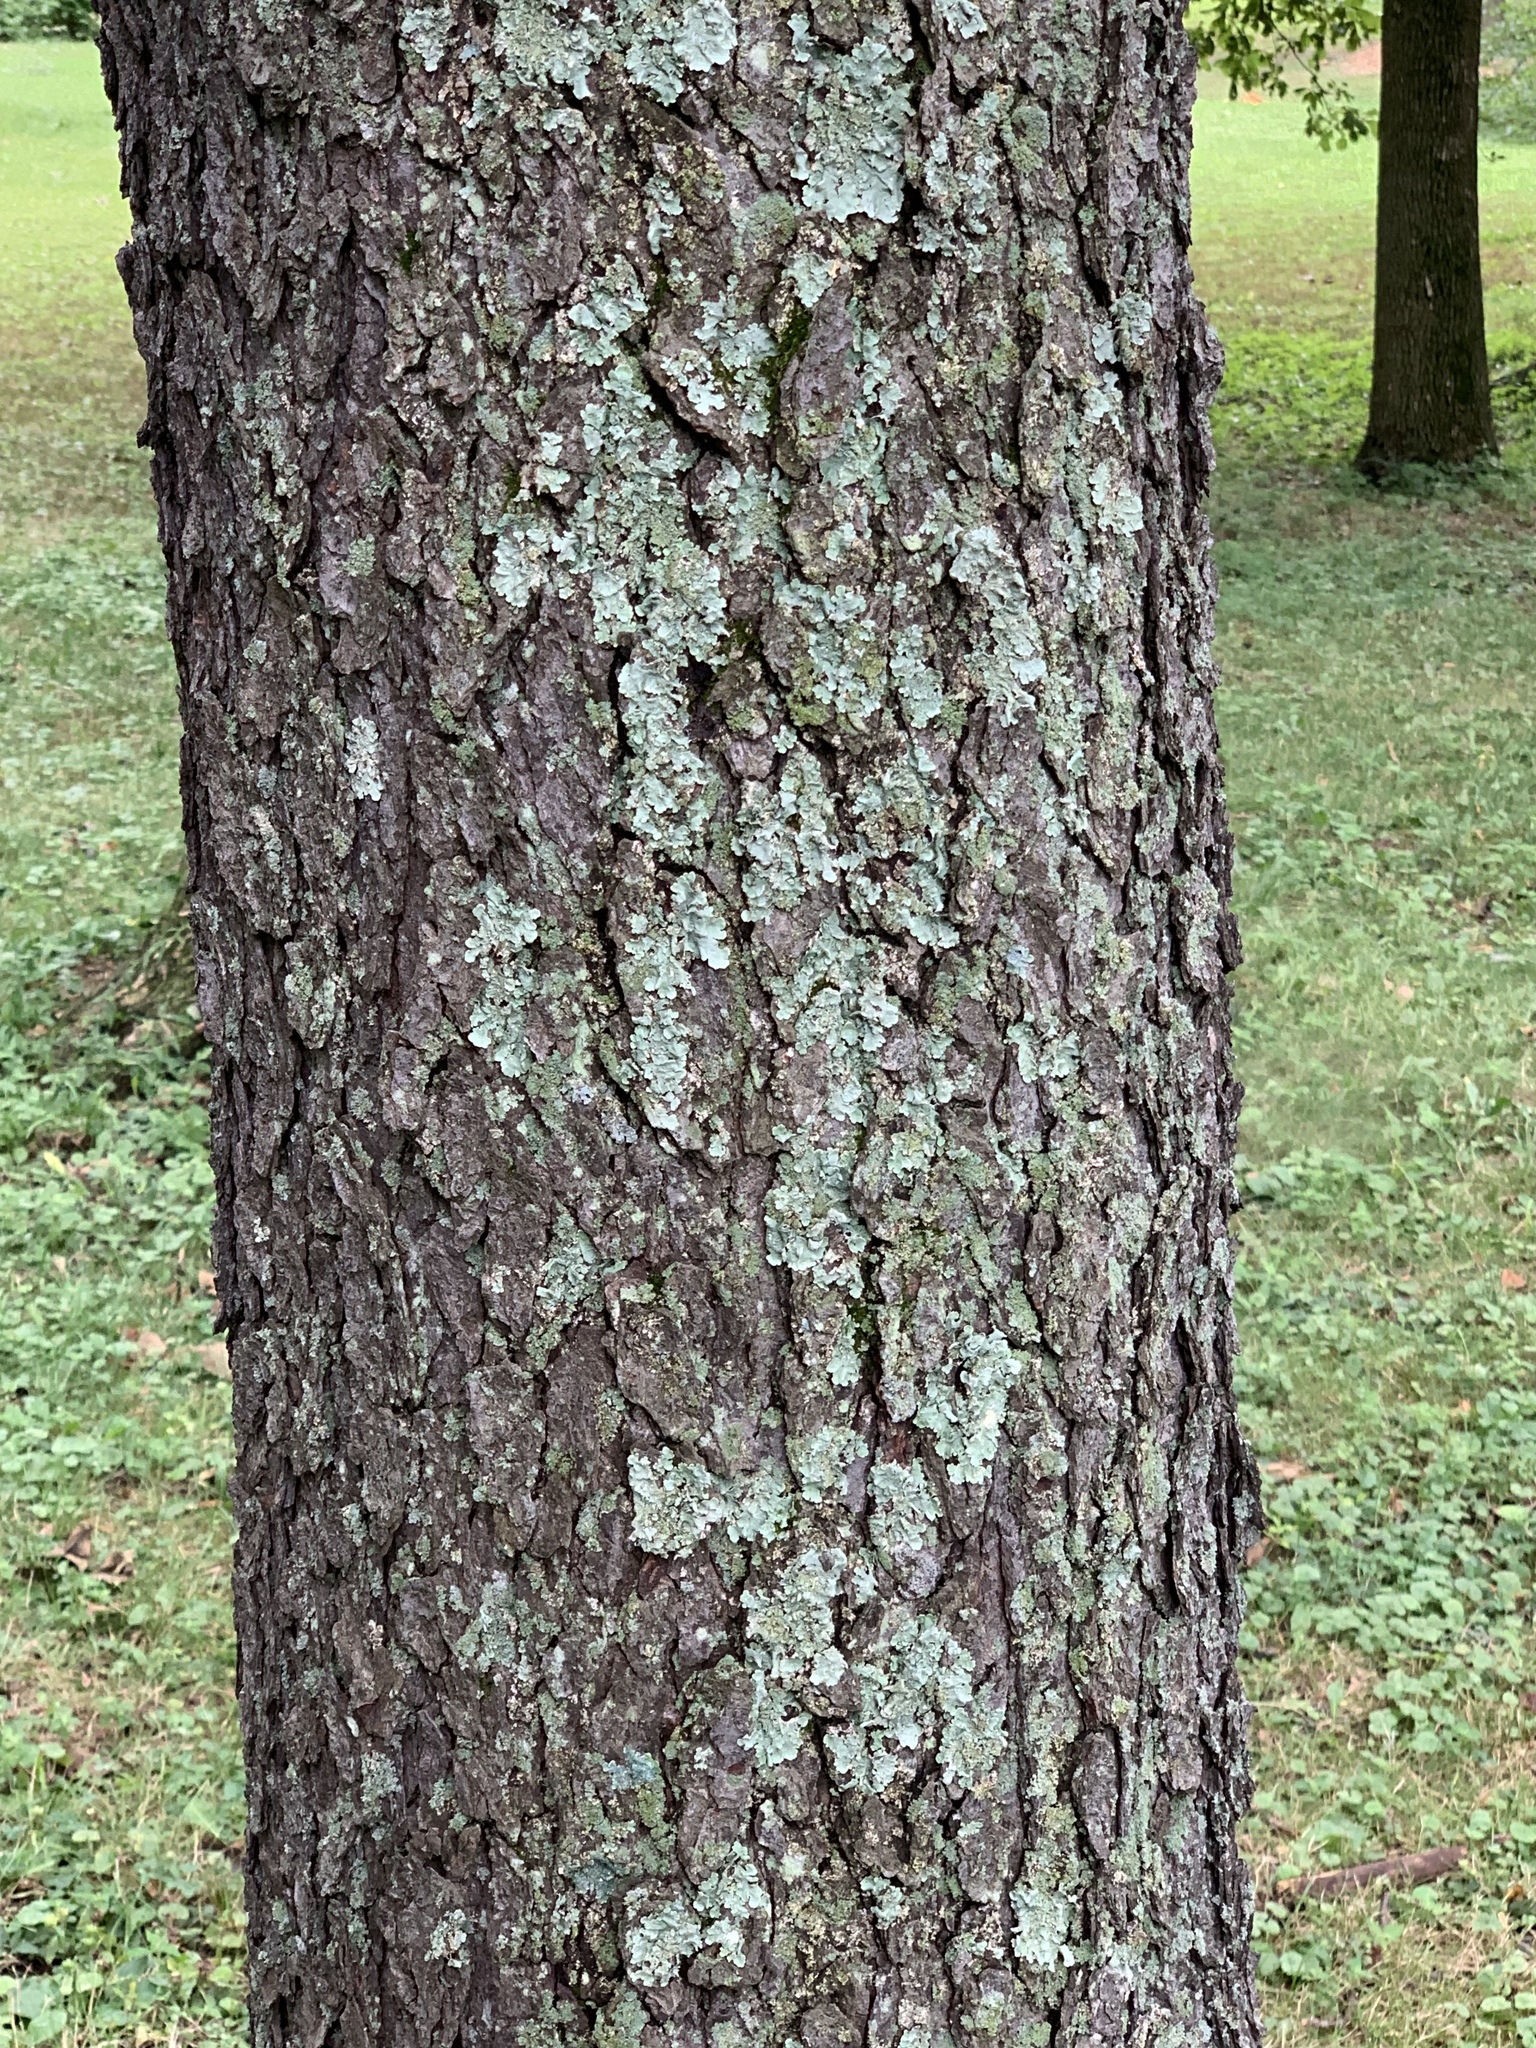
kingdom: Plantae
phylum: Tracheophyta
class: Magnoliopsida
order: Rosales
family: Rosaceae
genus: Prunus
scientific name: Prunus serotina
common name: Black cherry
